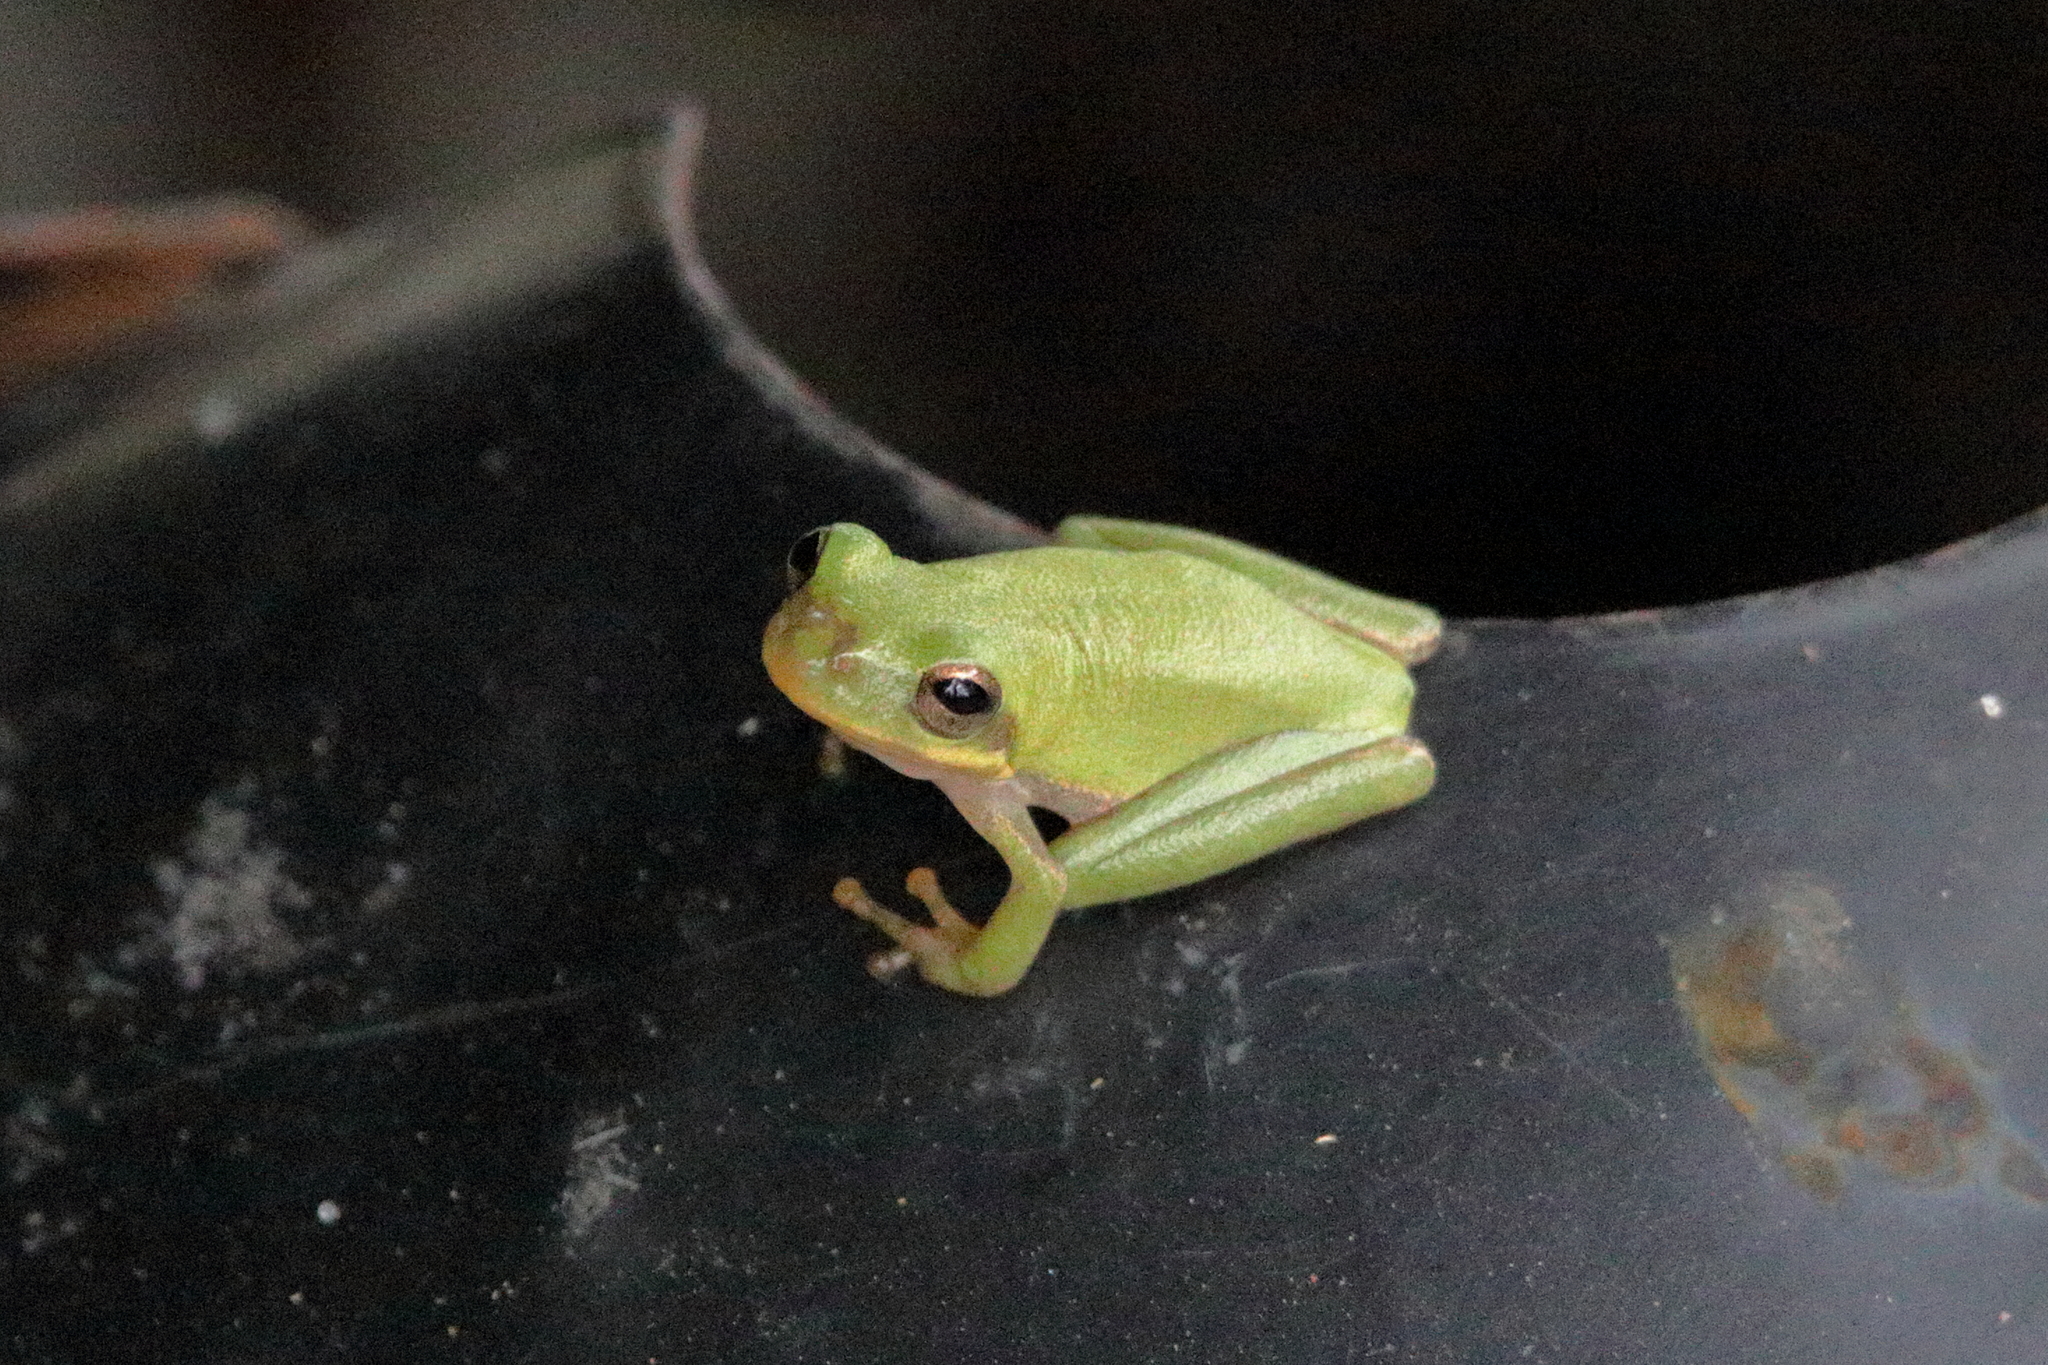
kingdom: Animalia
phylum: Chordata
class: Amphibia
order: Anura
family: Hylidae
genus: Dryophytes
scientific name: Dryophytes squirellus
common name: Squirrel treefrog
